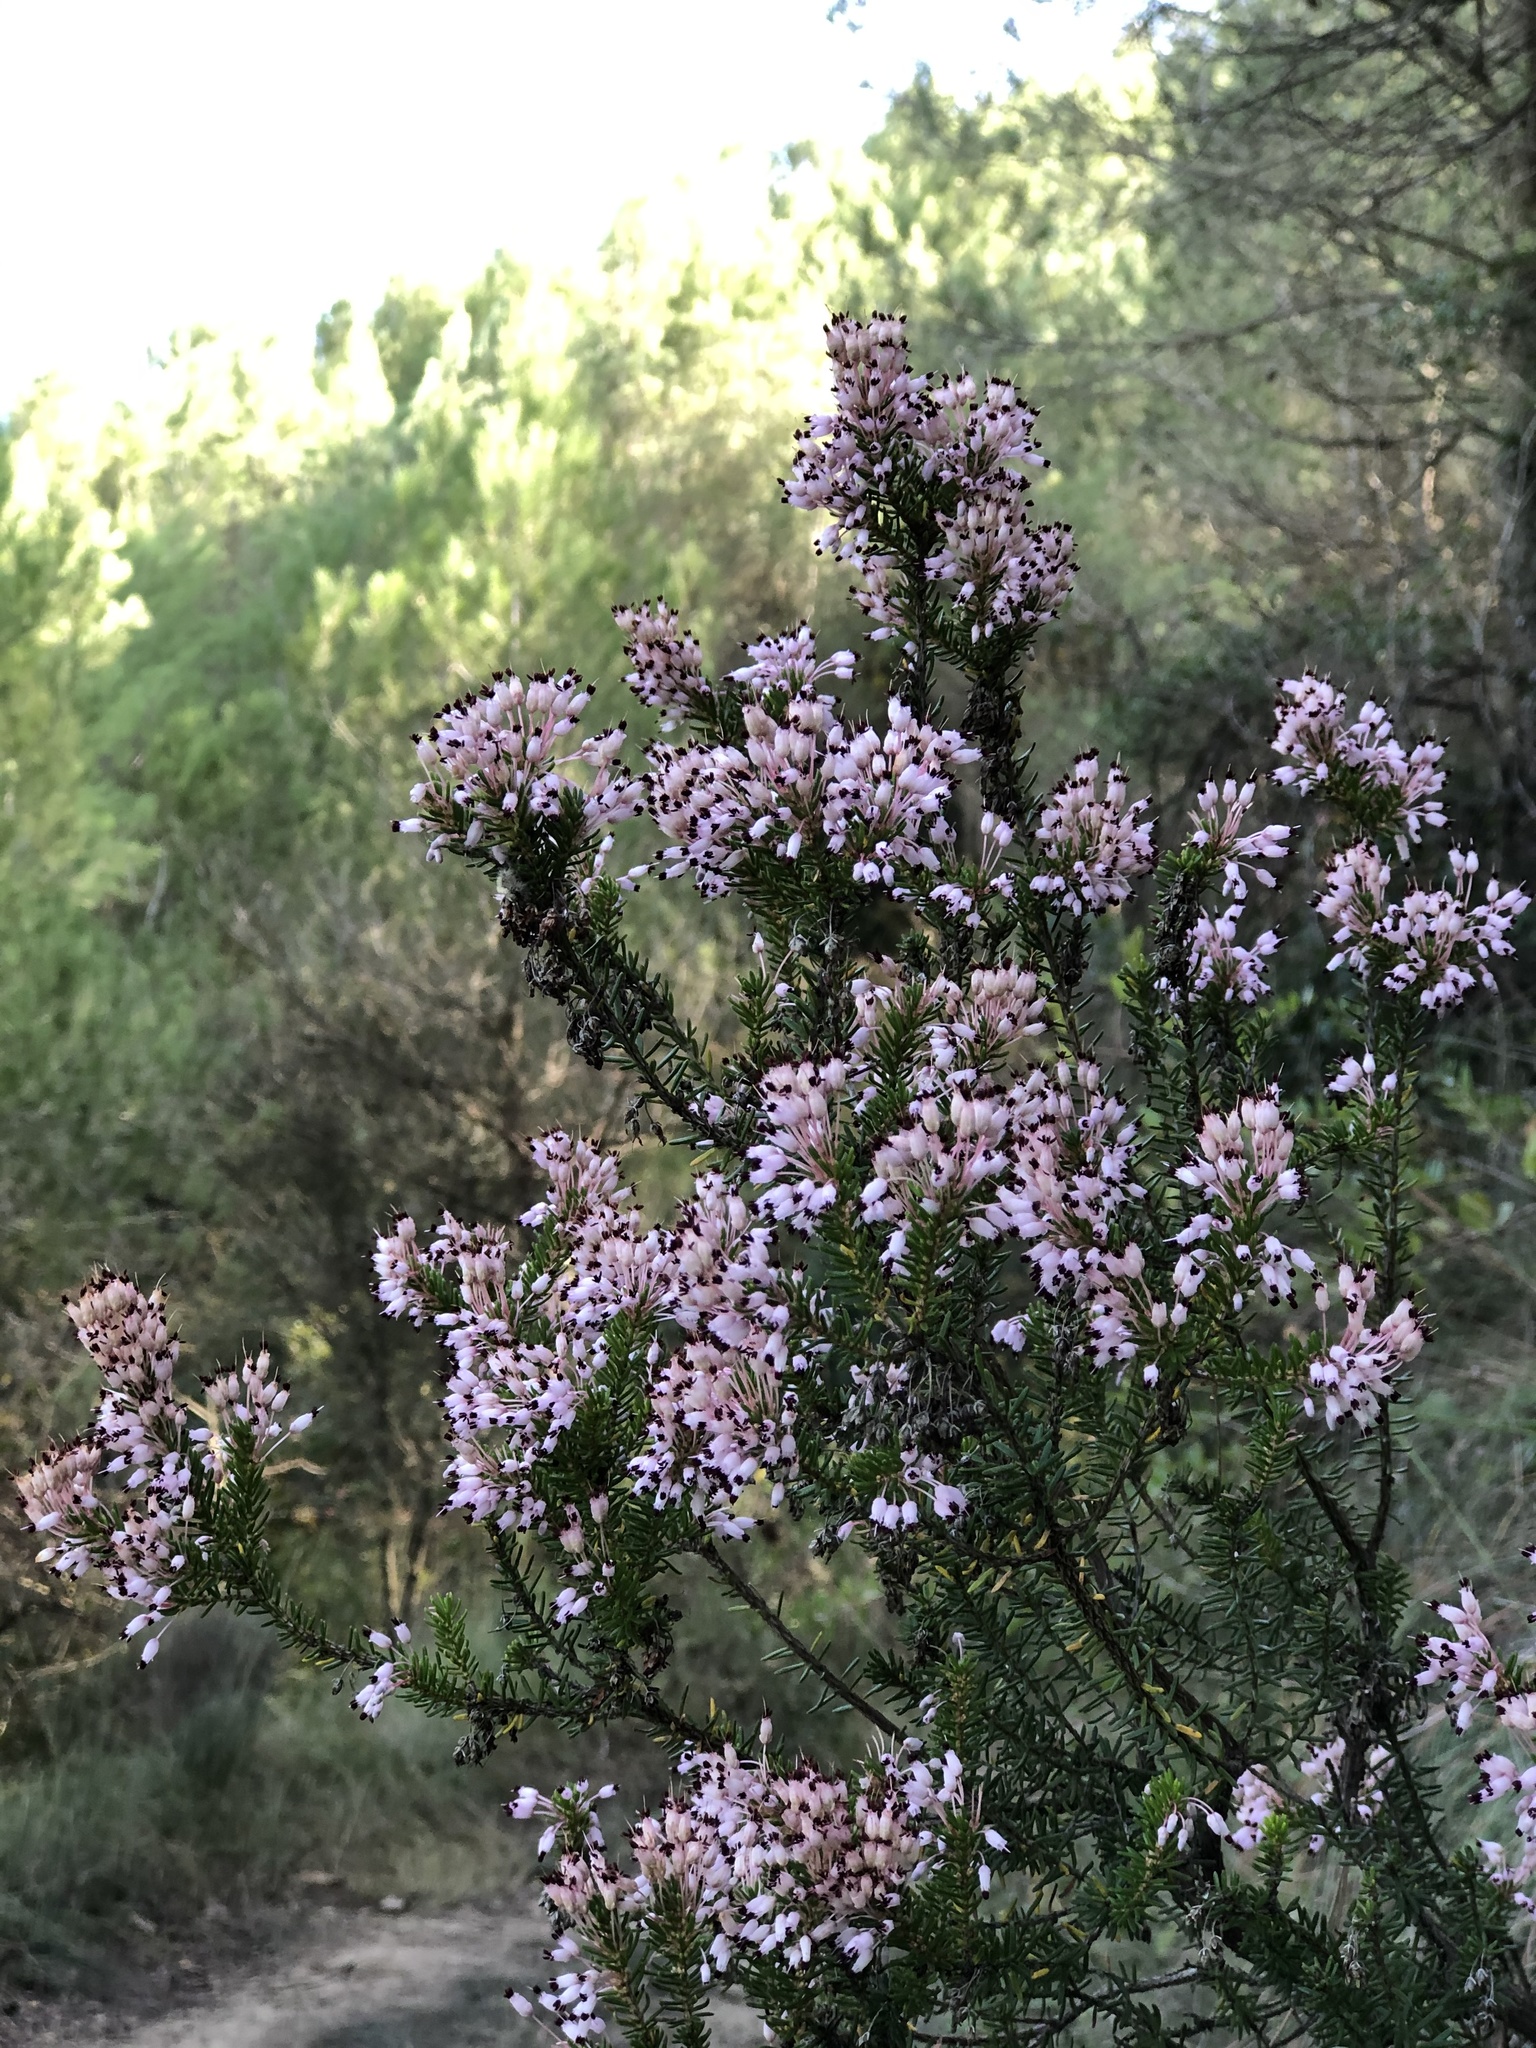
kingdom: Plantae
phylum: Tracheophyta
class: Magnoliopsida
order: Ericales
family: Ericaceae
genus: Erica
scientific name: Erica multiflora
